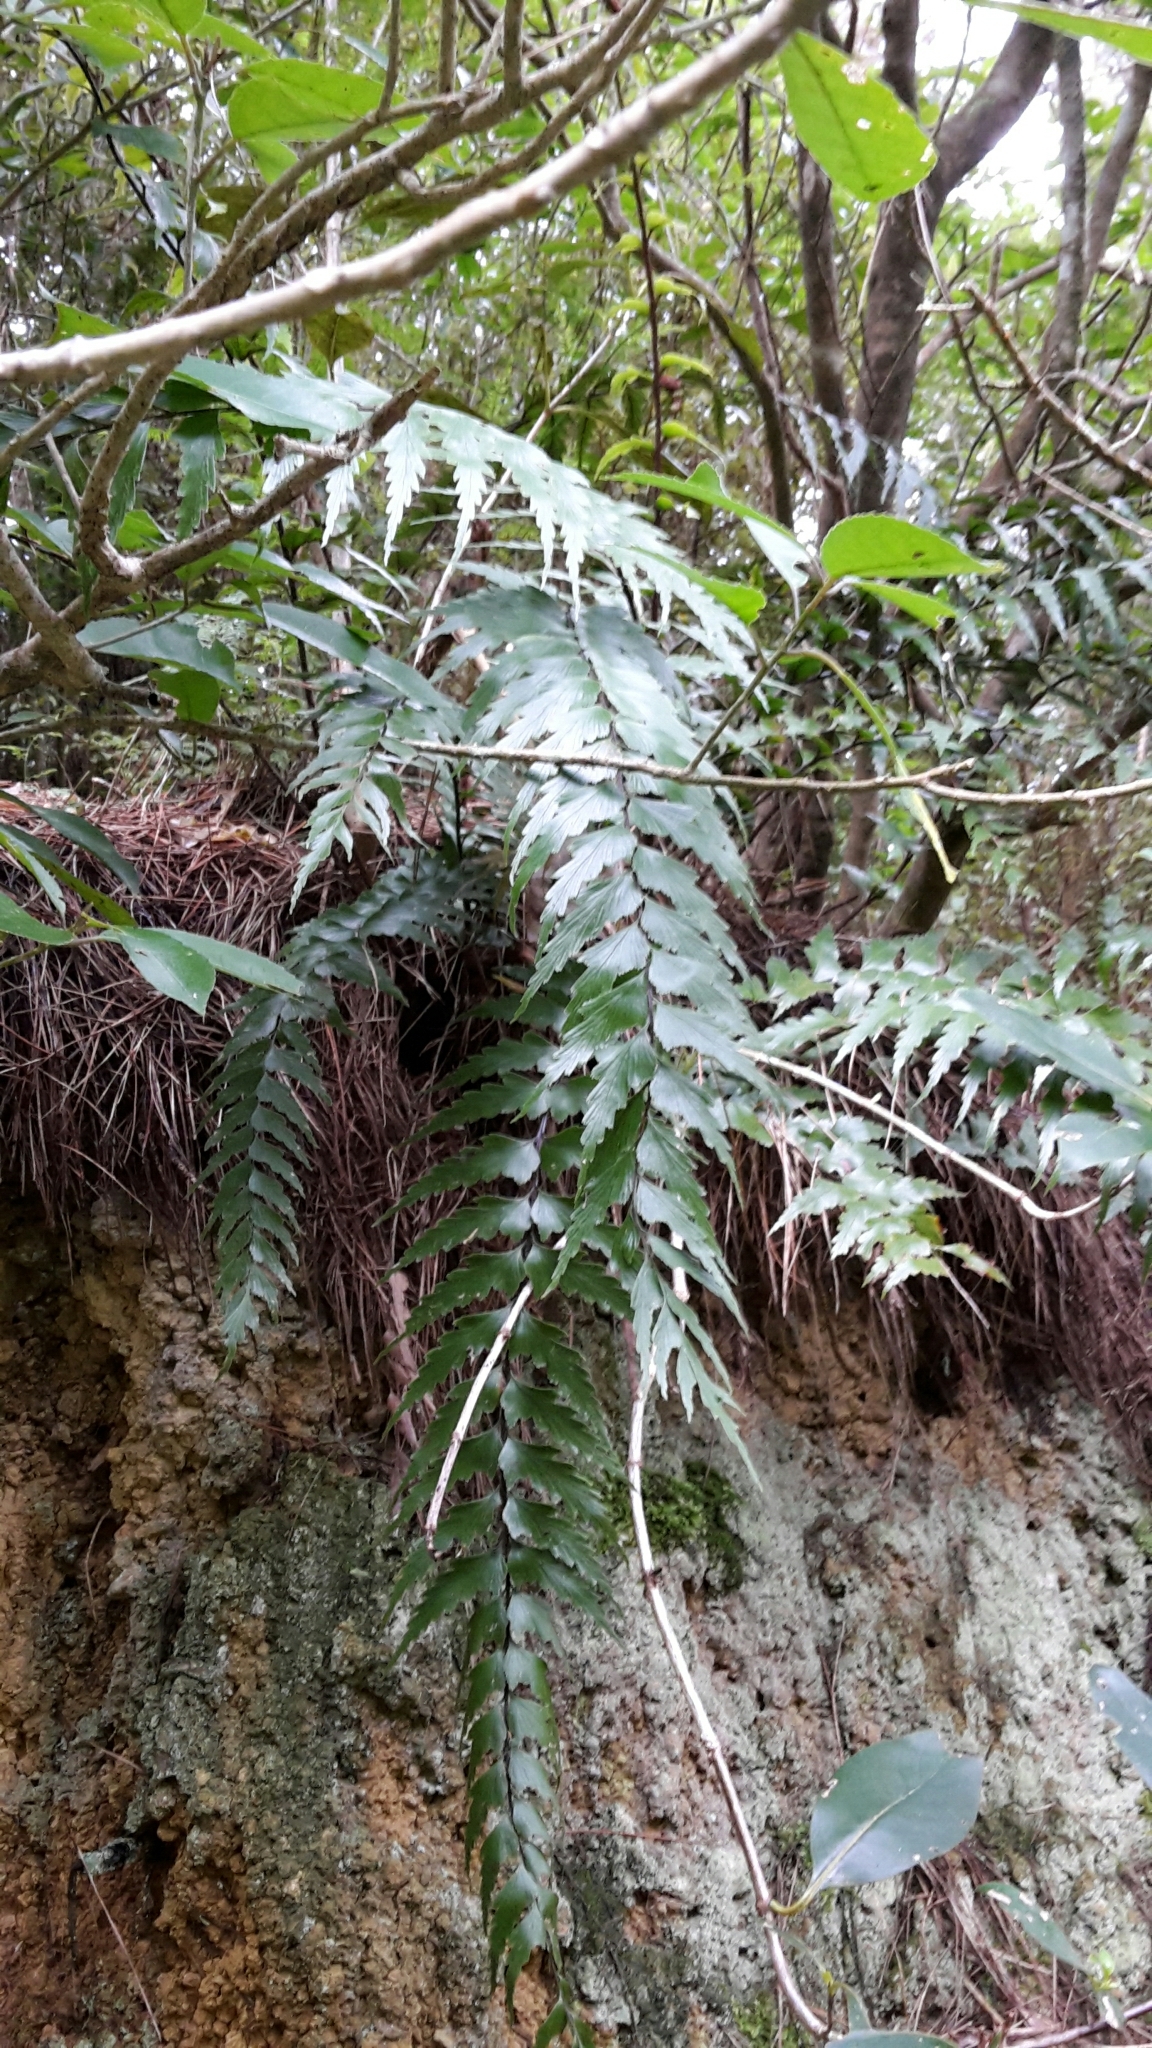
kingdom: Plantae
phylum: Tracheophyta
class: Polypodiopsida
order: Polypodiales
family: Aspleniaceae
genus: Asplenium
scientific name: Asplenium polyodon
